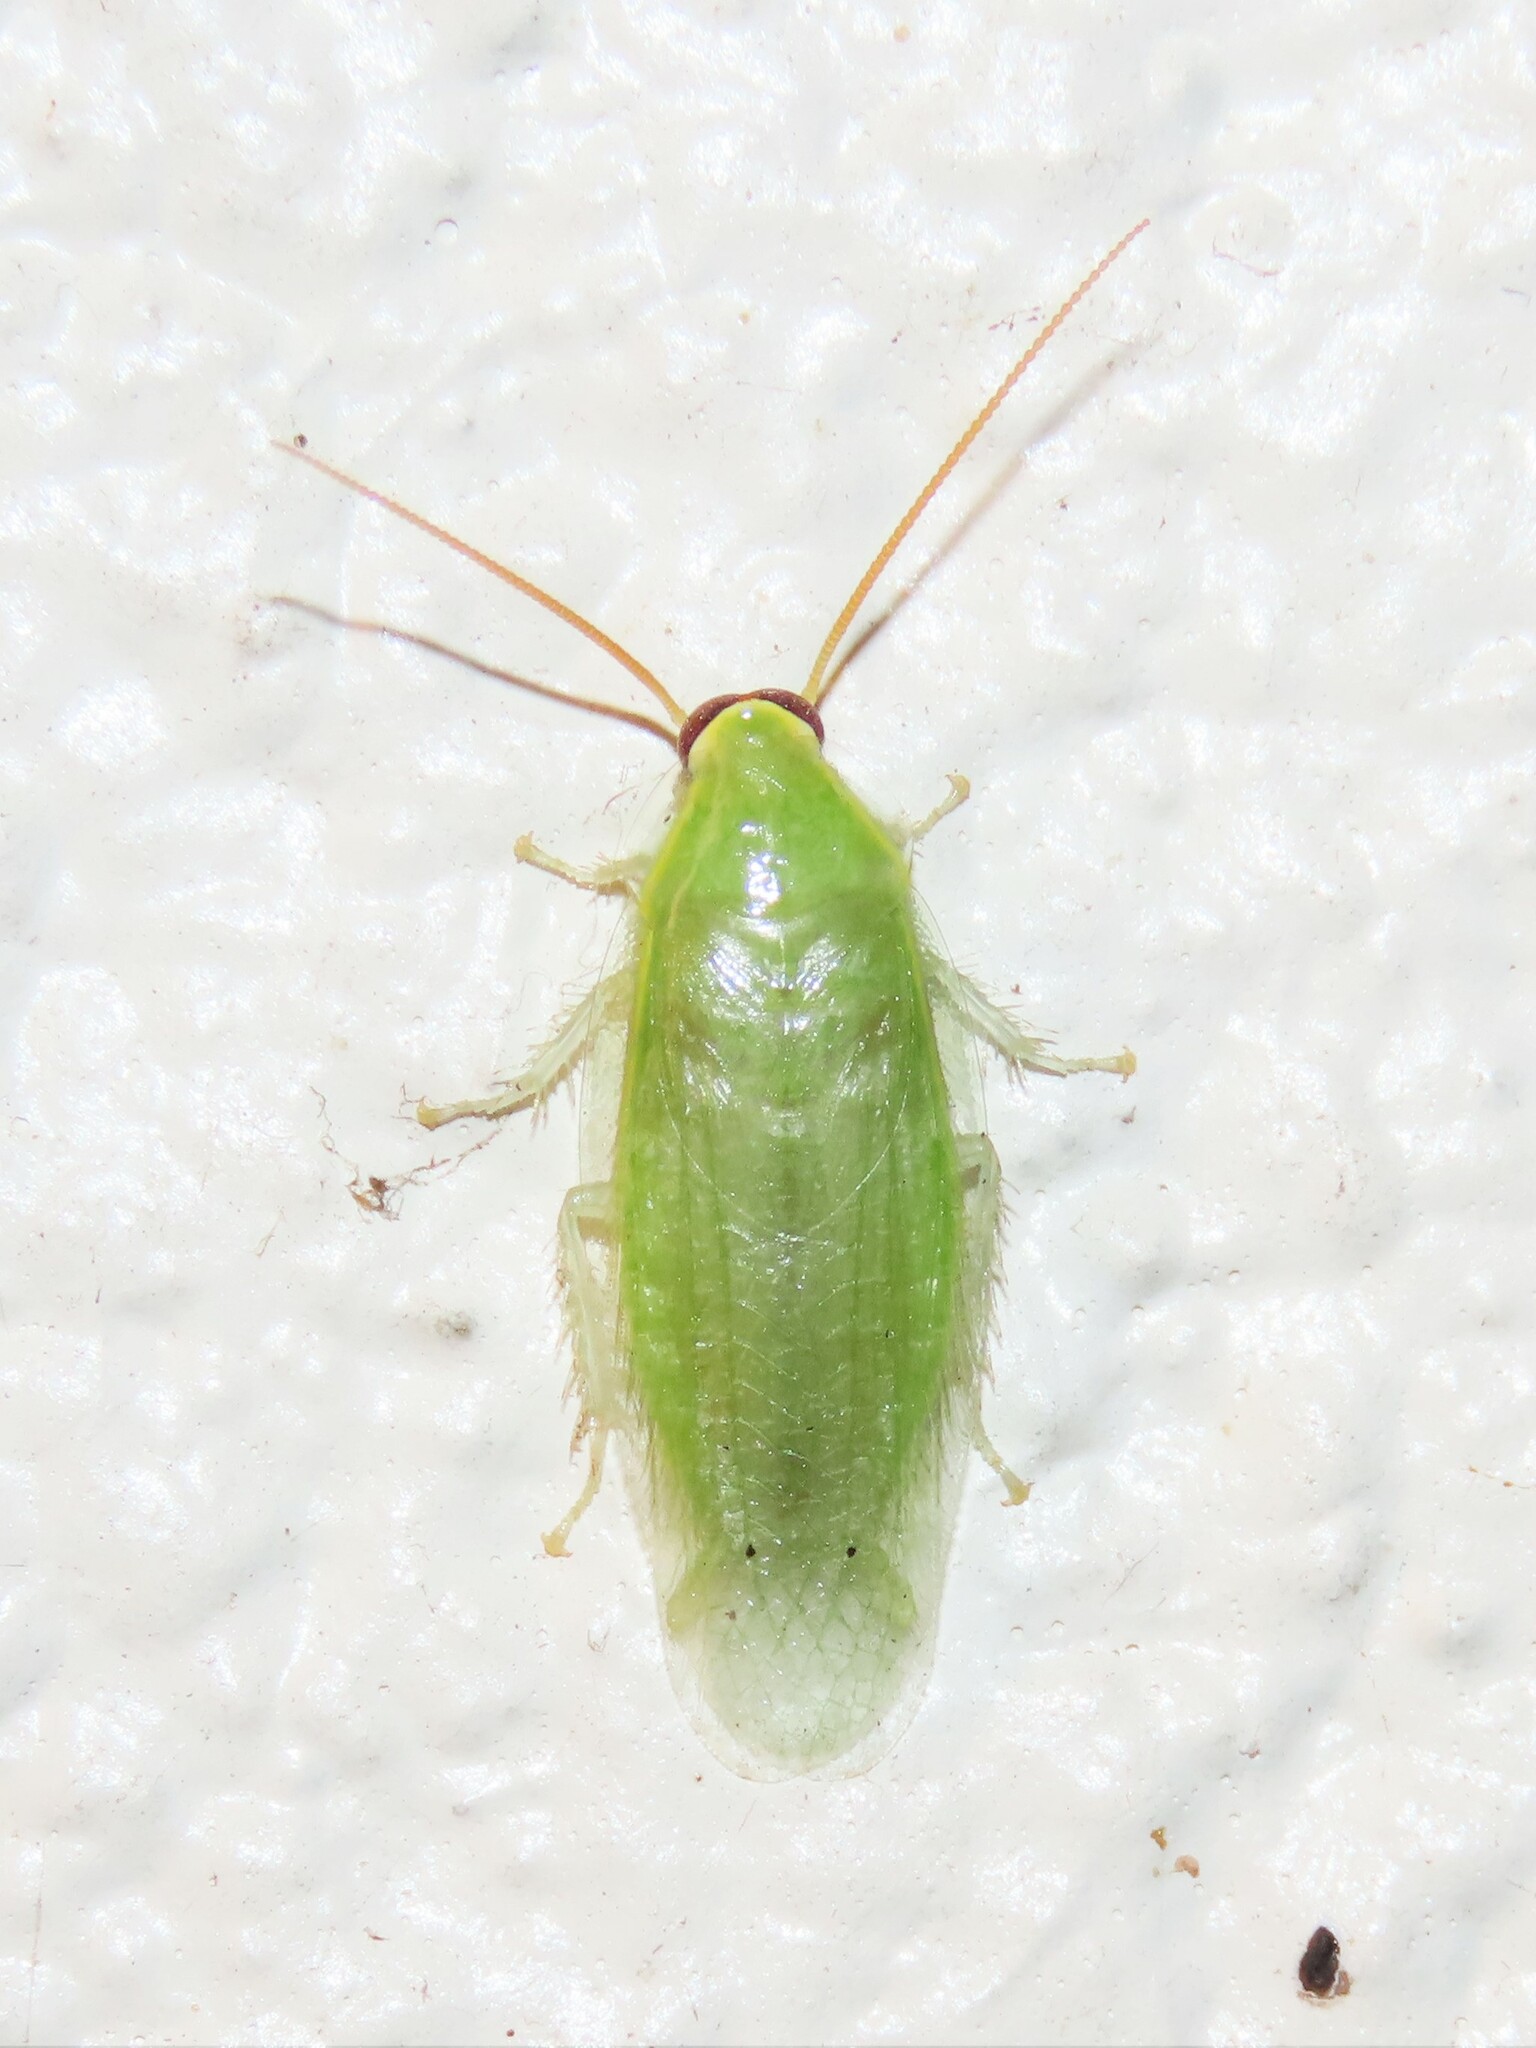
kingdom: Animalia
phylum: Arthropoda
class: Insecta
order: Blattodea
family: Blaberidae
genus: Panchlora
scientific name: Panchlora nivea
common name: Cuban cockroach
